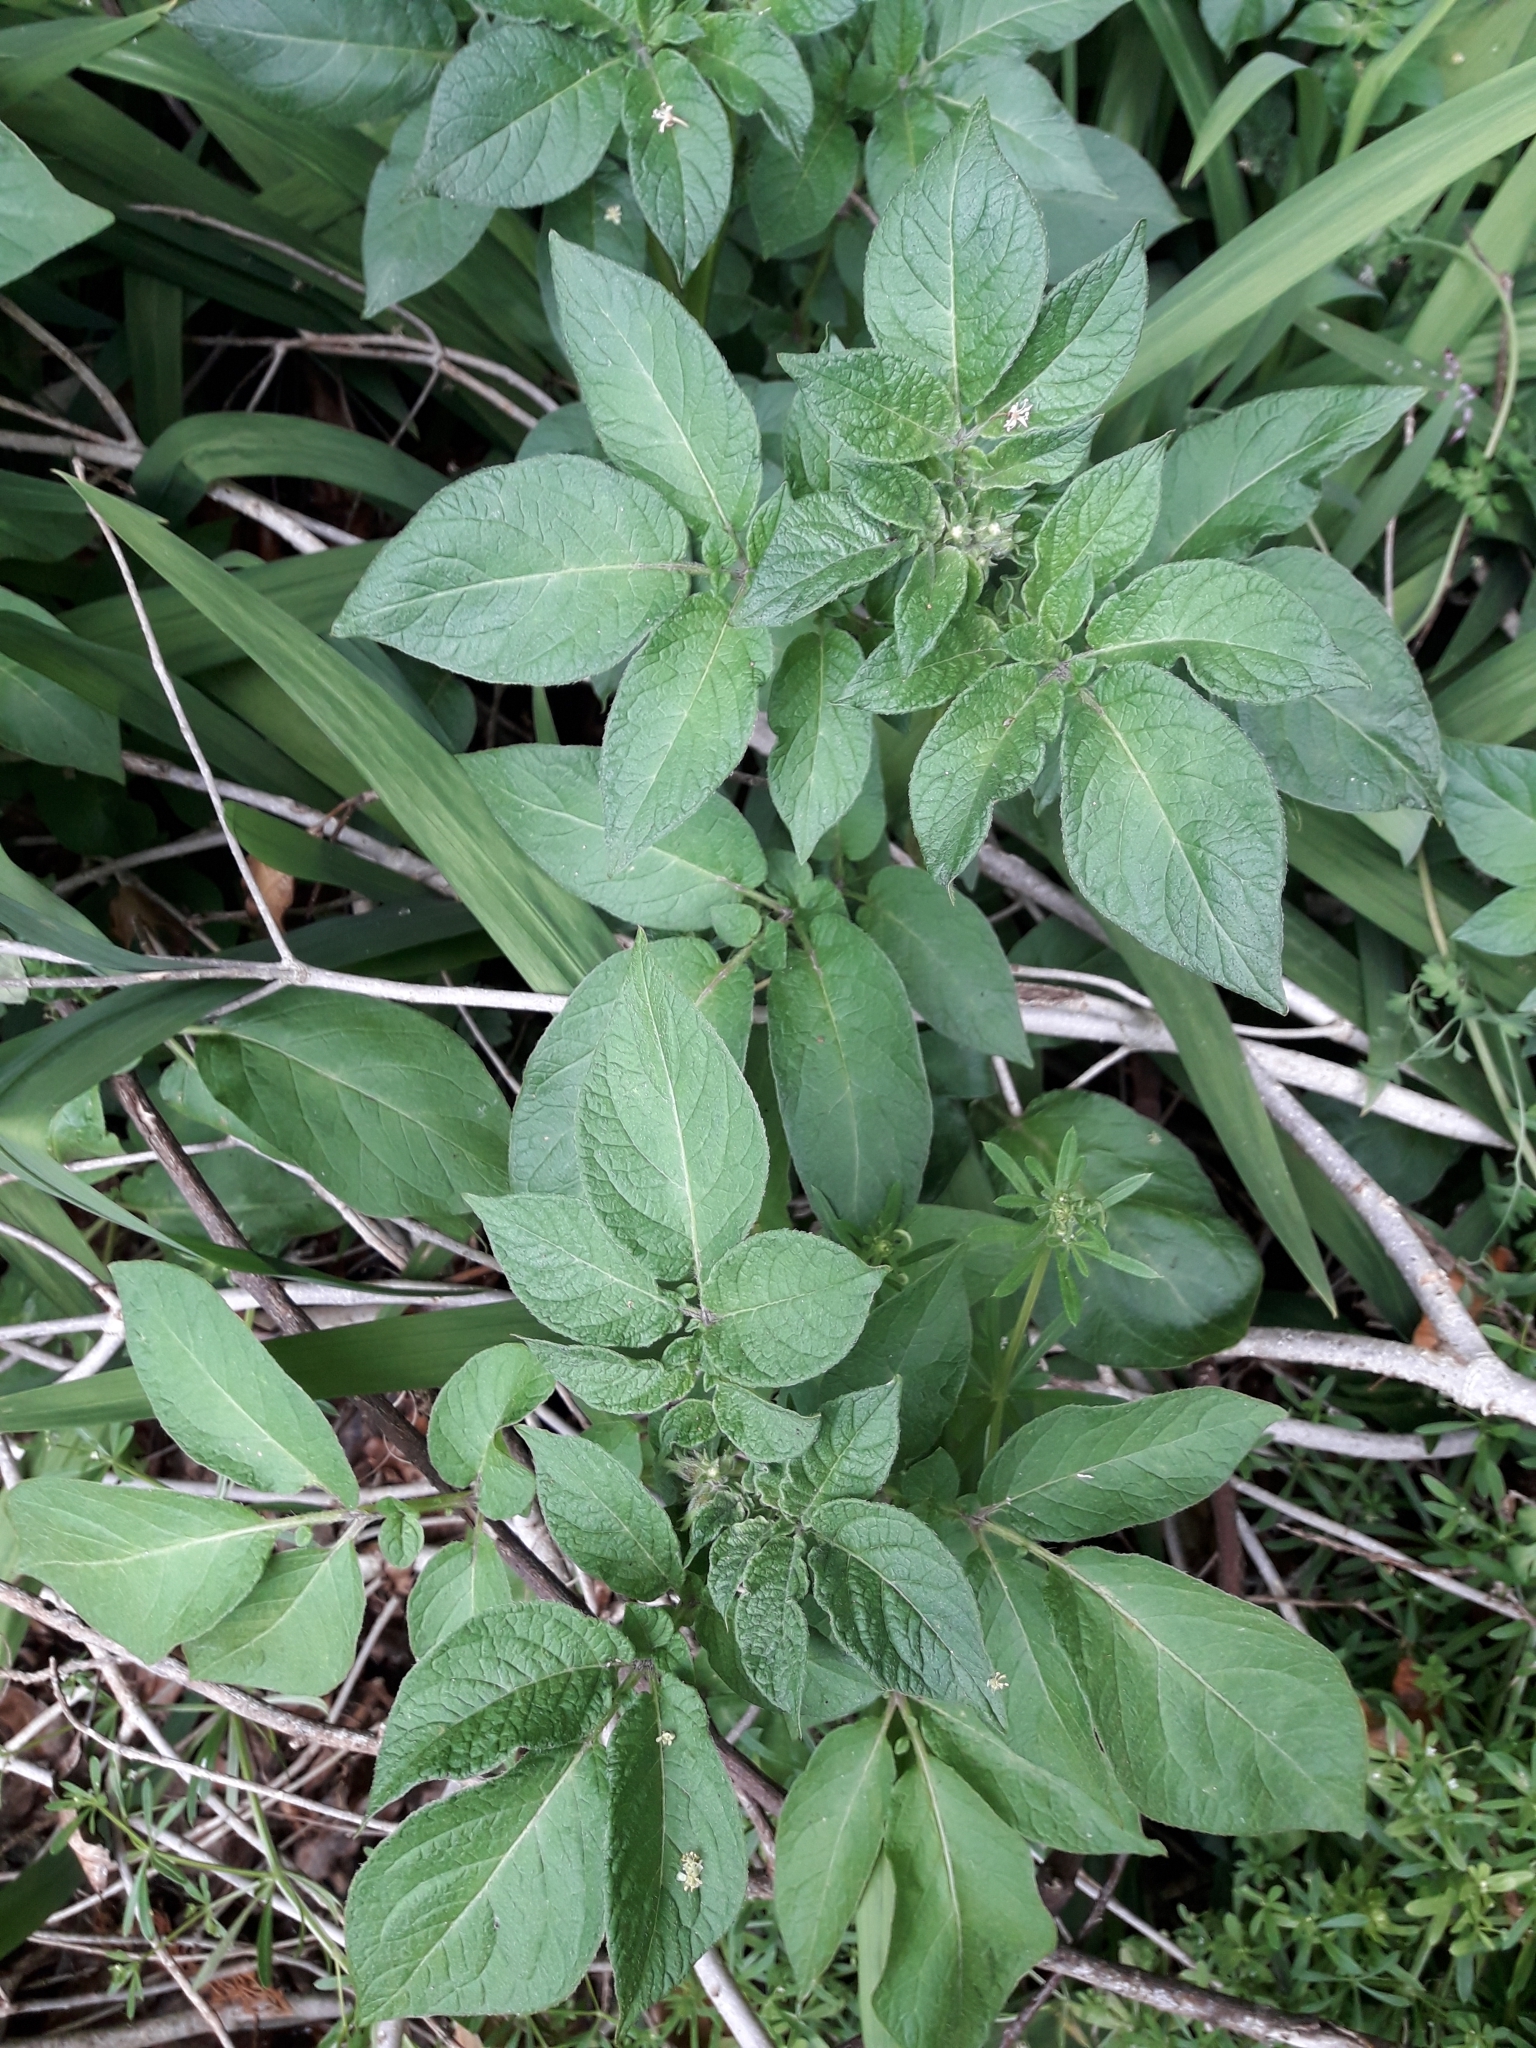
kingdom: Plantae
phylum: Tracheophyta
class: Magnoliopsida
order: Solanales
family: Solanaceae
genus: Solanum
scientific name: Solanum tuberosum
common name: Potato
